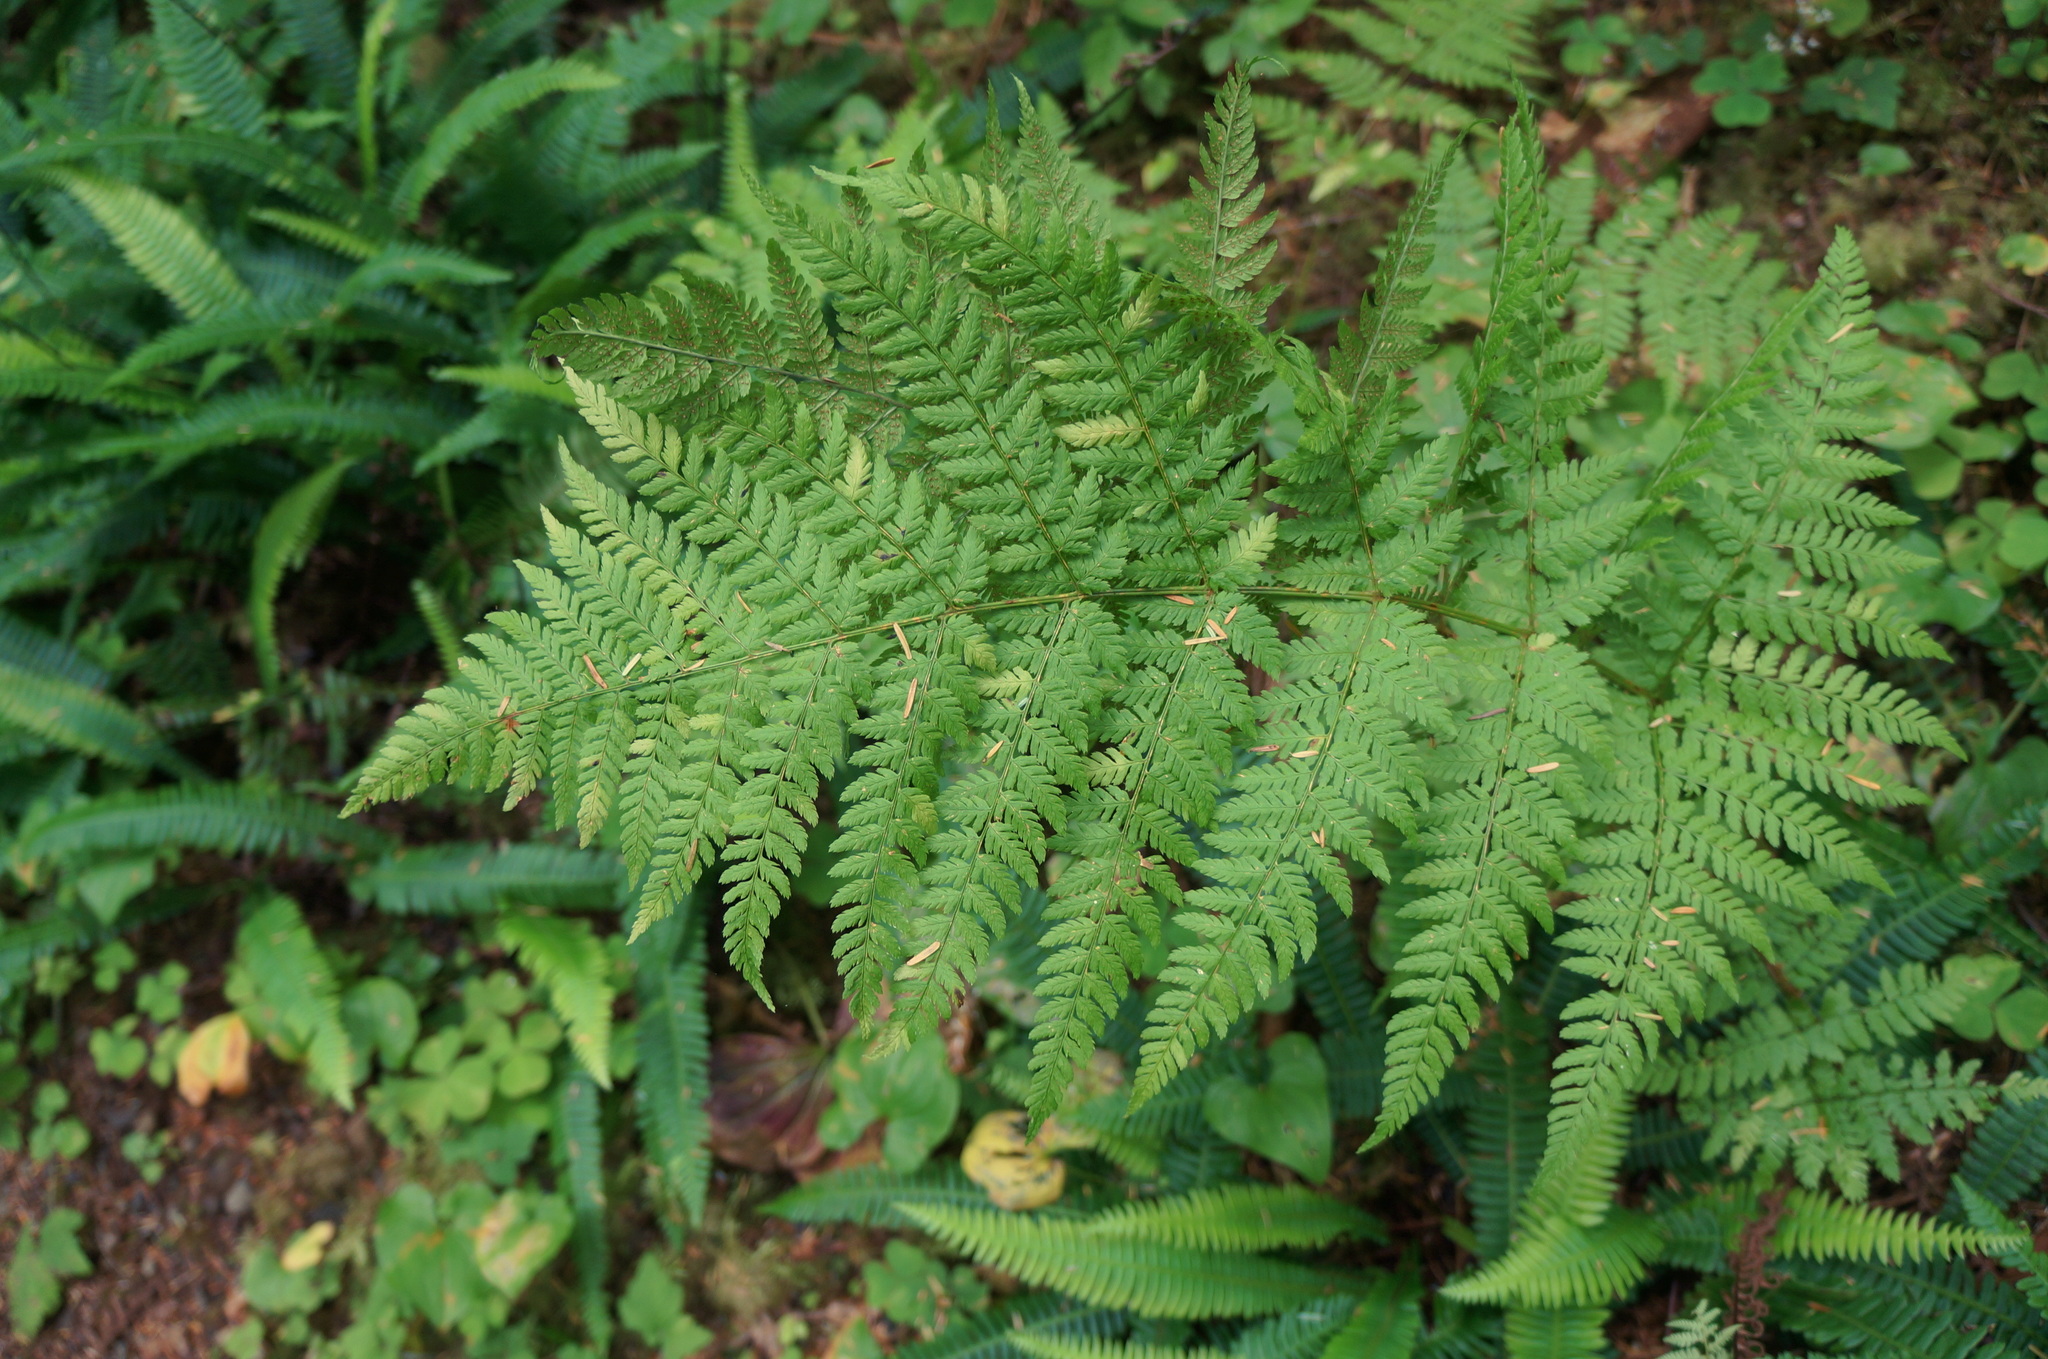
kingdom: Plantae
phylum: Tracheophyta
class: Polypodiopsida
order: Polypodiales
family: Athyriaceae
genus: Athyrium
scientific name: Athyrium filix-femina
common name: Lady fern
